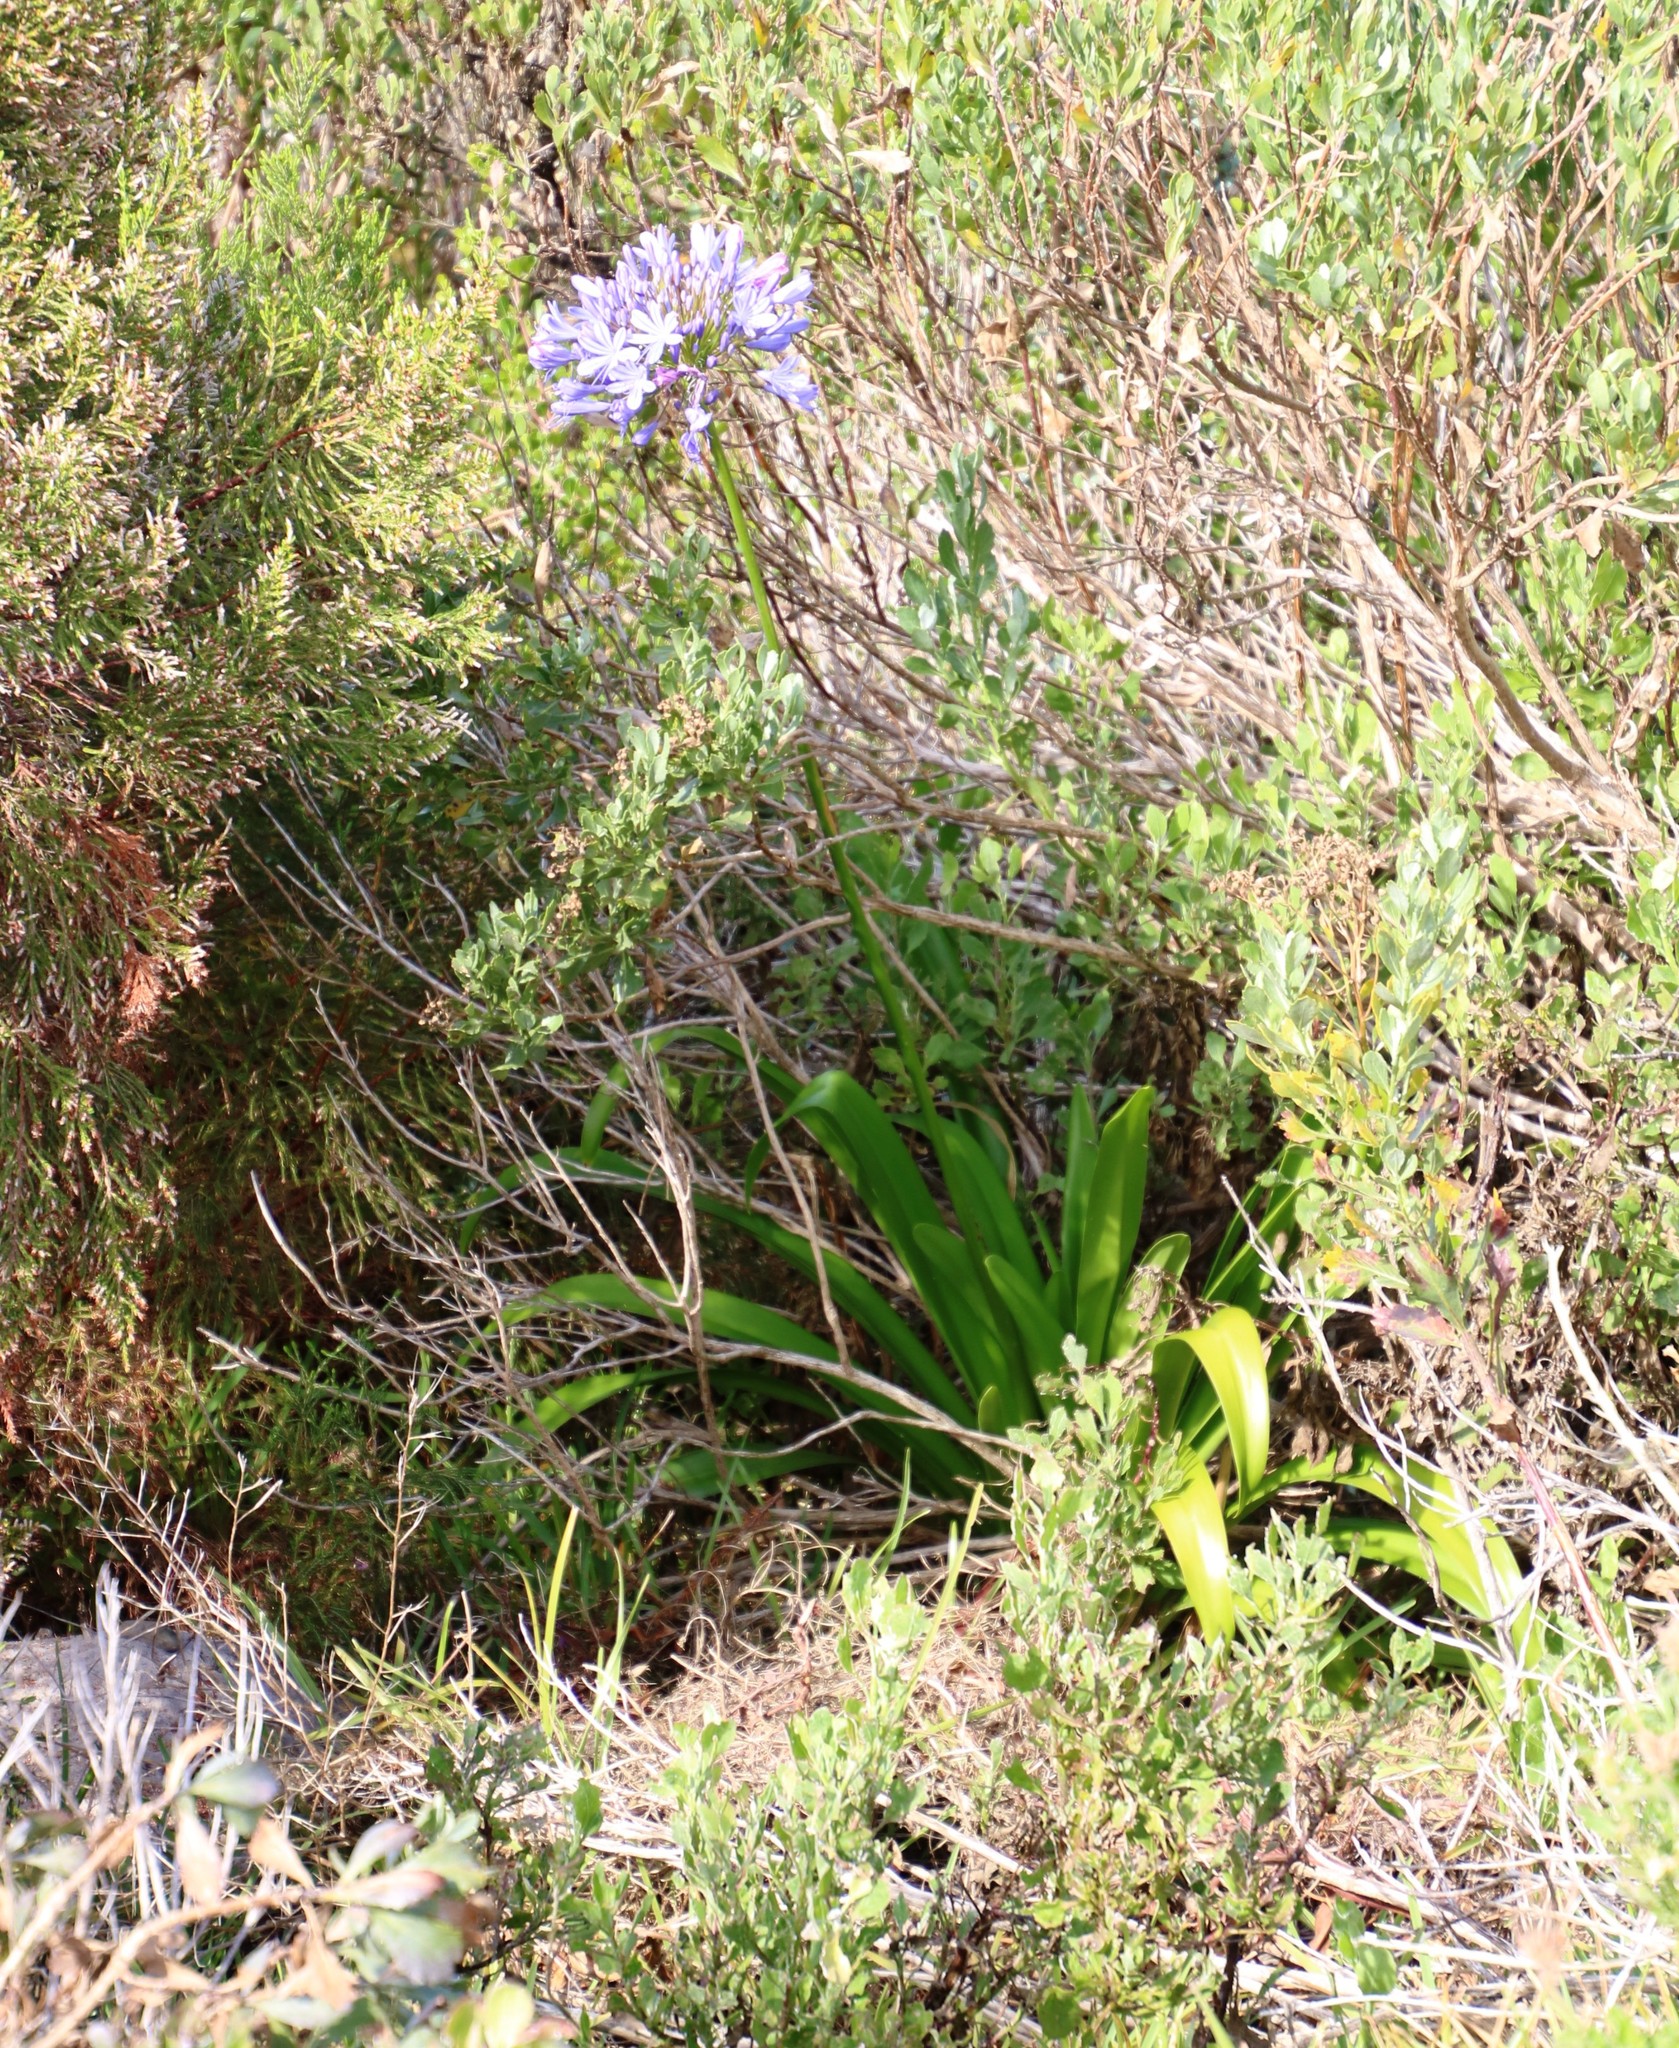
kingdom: Plantae
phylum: Tracheophyta
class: Liliopsida
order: Asparagales
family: Amaryllidaceae
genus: Agapanthus
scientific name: Agapanthus praecox
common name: African-lily
